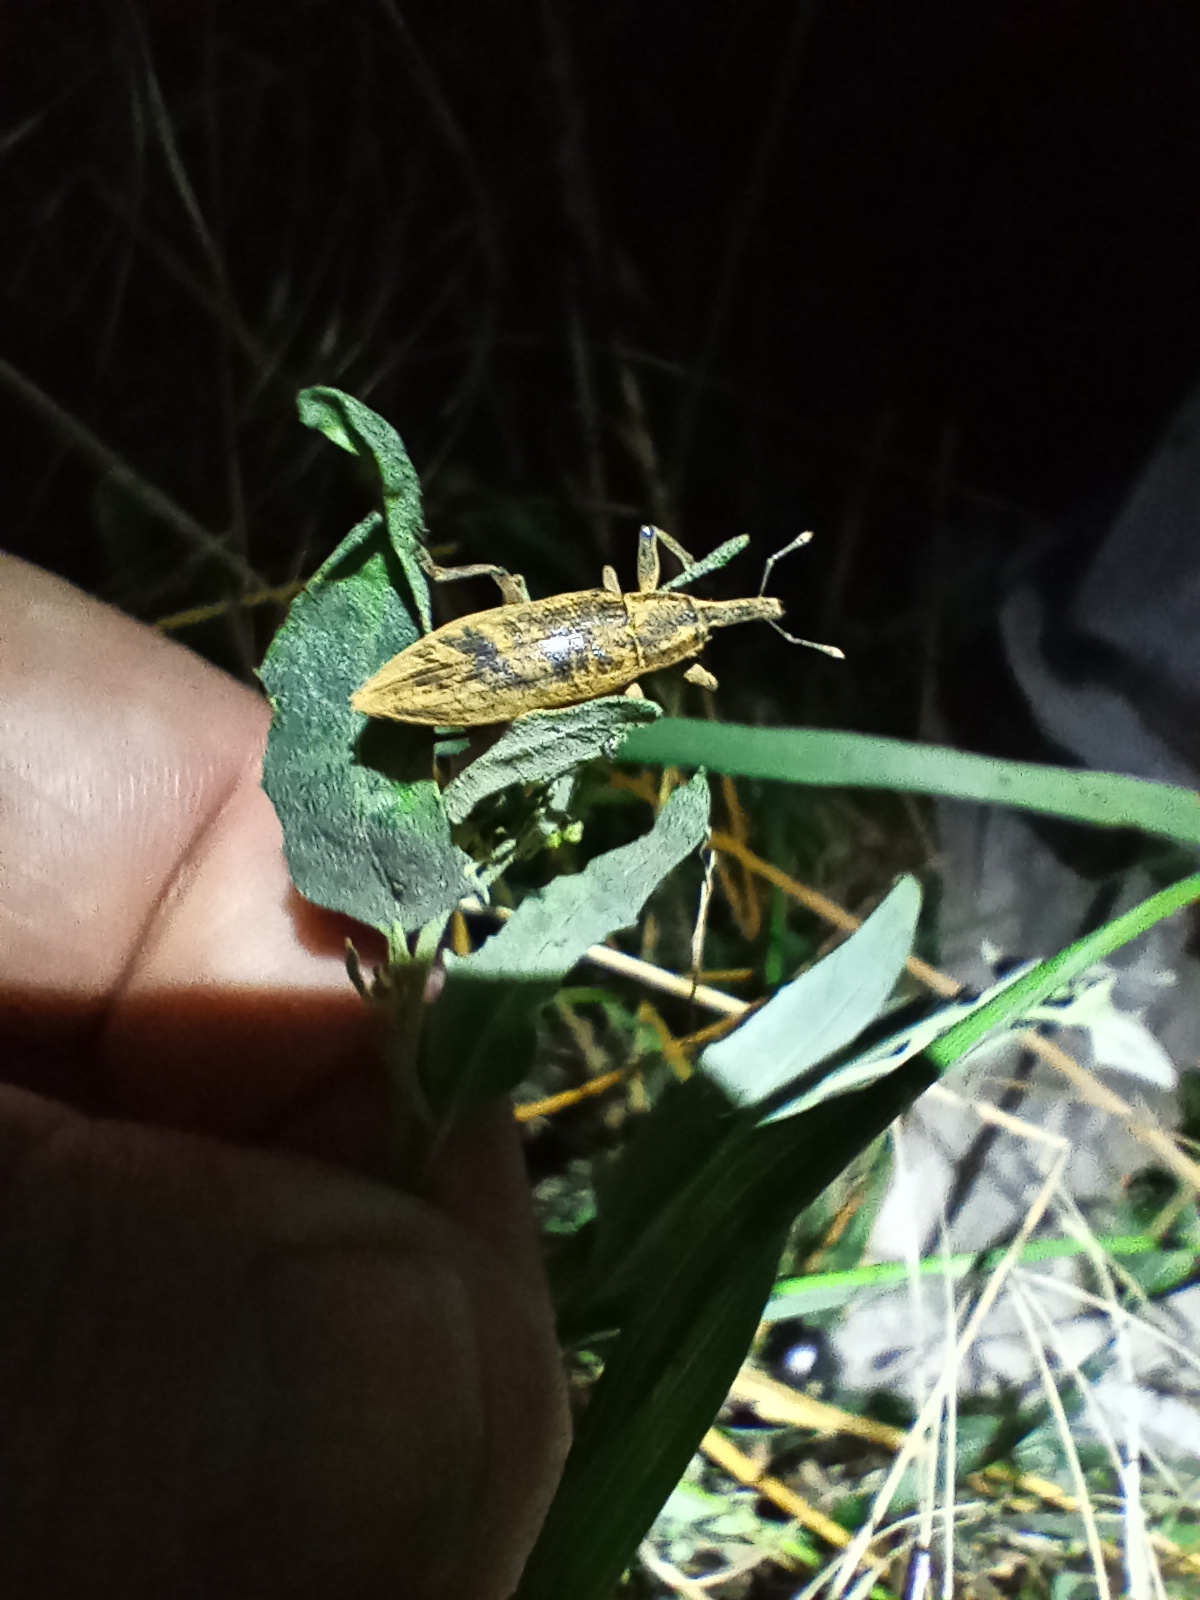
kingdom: Animalia
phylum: Arthropoda
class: Insecta
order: Coleoptera
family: Curculionidae
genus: Lixus
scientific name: Lixus iridis
